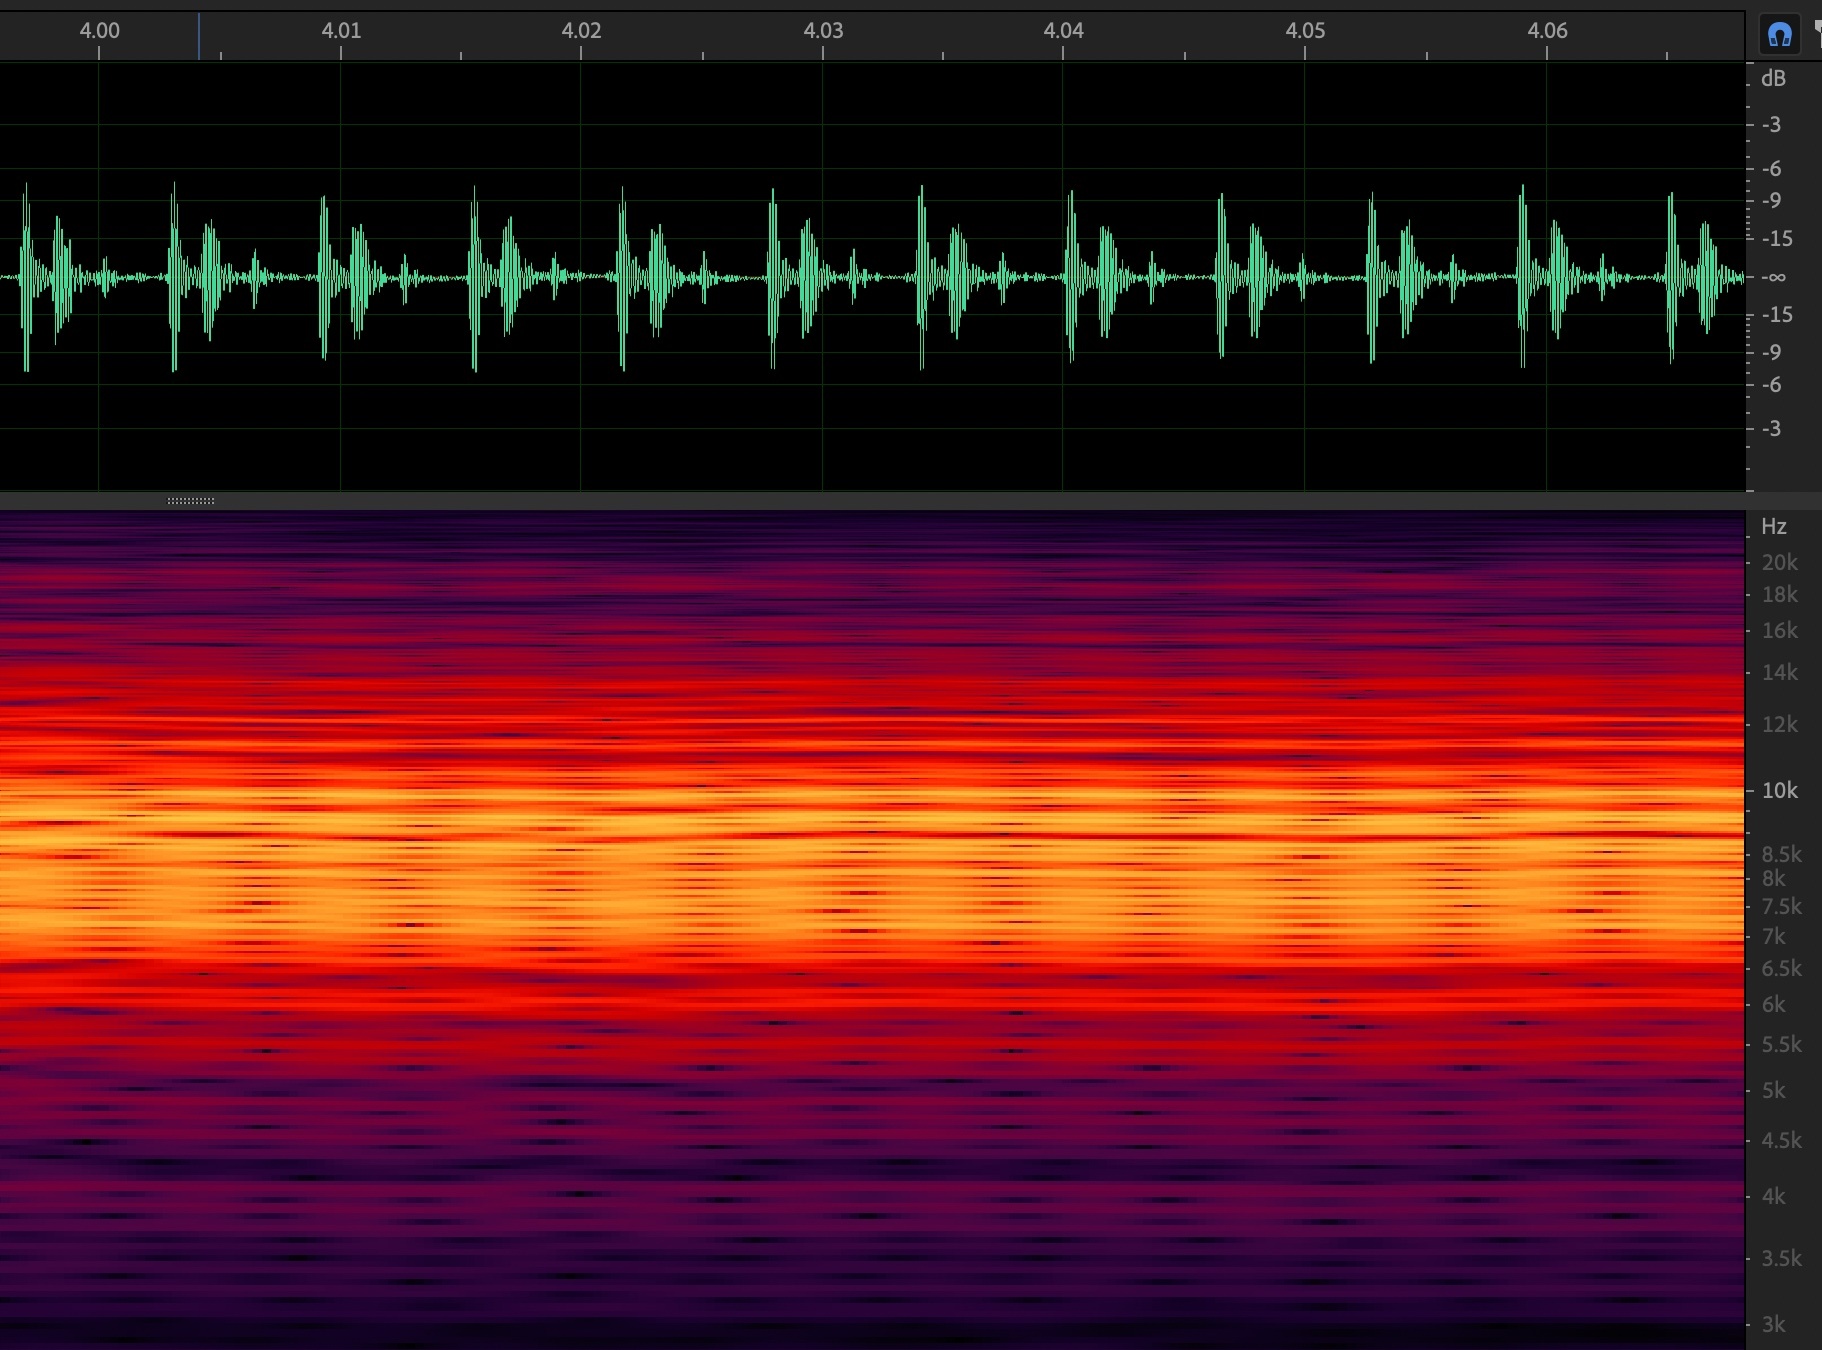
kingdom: Animalia
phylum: Arthropoda
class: Insecta
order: Hemiptera
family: Cicadidae
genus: Diceroprocta
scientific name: Diceroprocta eugraphica
